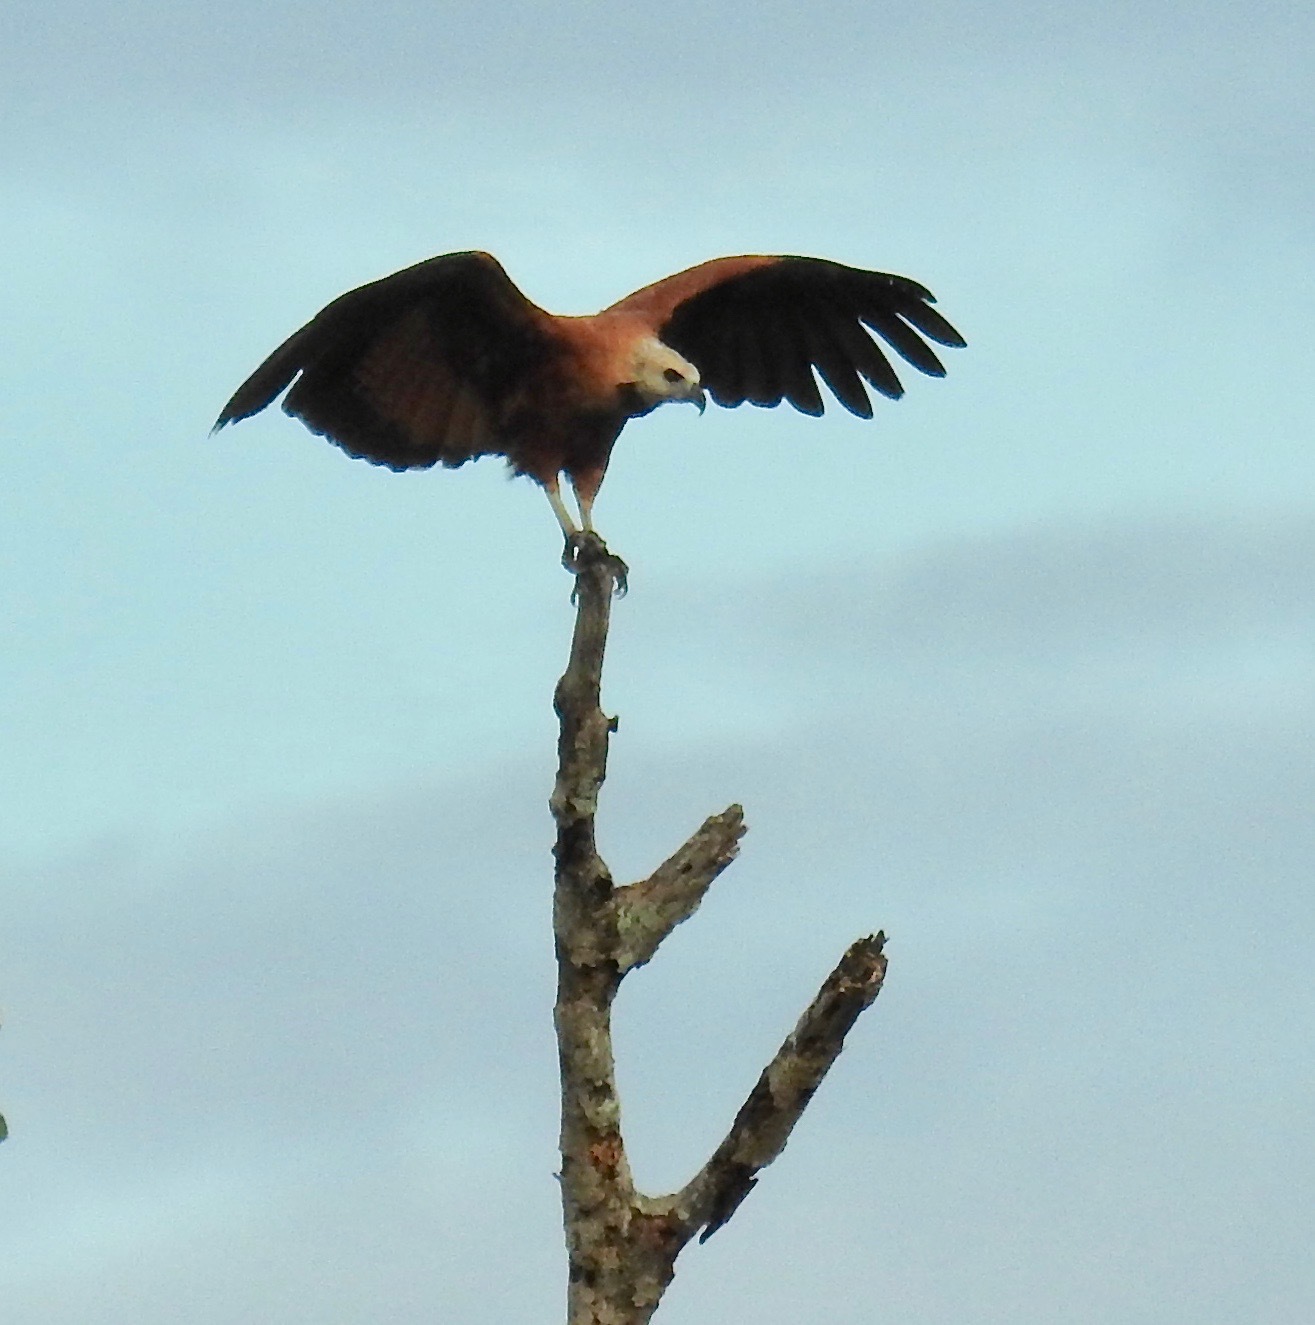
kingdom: Animalia
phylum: Chordata
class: Aves
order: Accipitriformes
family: Accipitridae
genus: Busarellus
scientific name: Busarellus nigricollis
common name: Black-collared hawk
